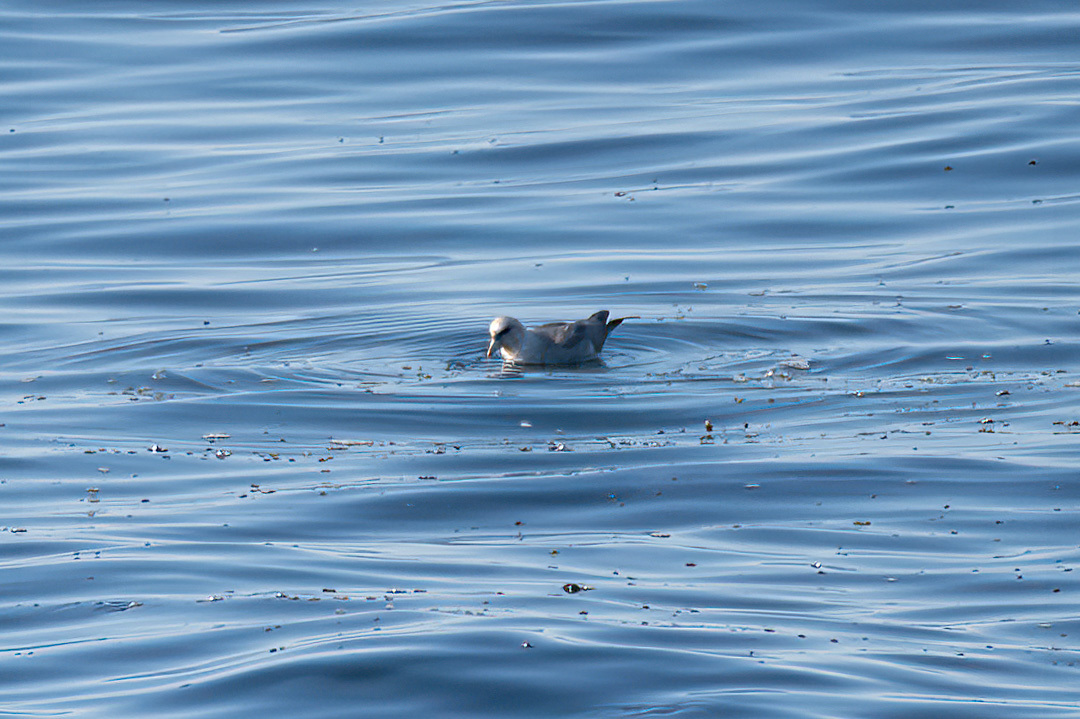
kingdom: Animalia
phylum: Chordata
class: Aves
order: Procellariiformes
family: Procellariidae
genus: Fulmarus
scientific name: Fulmarus glacialis
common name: Northern fulmar
